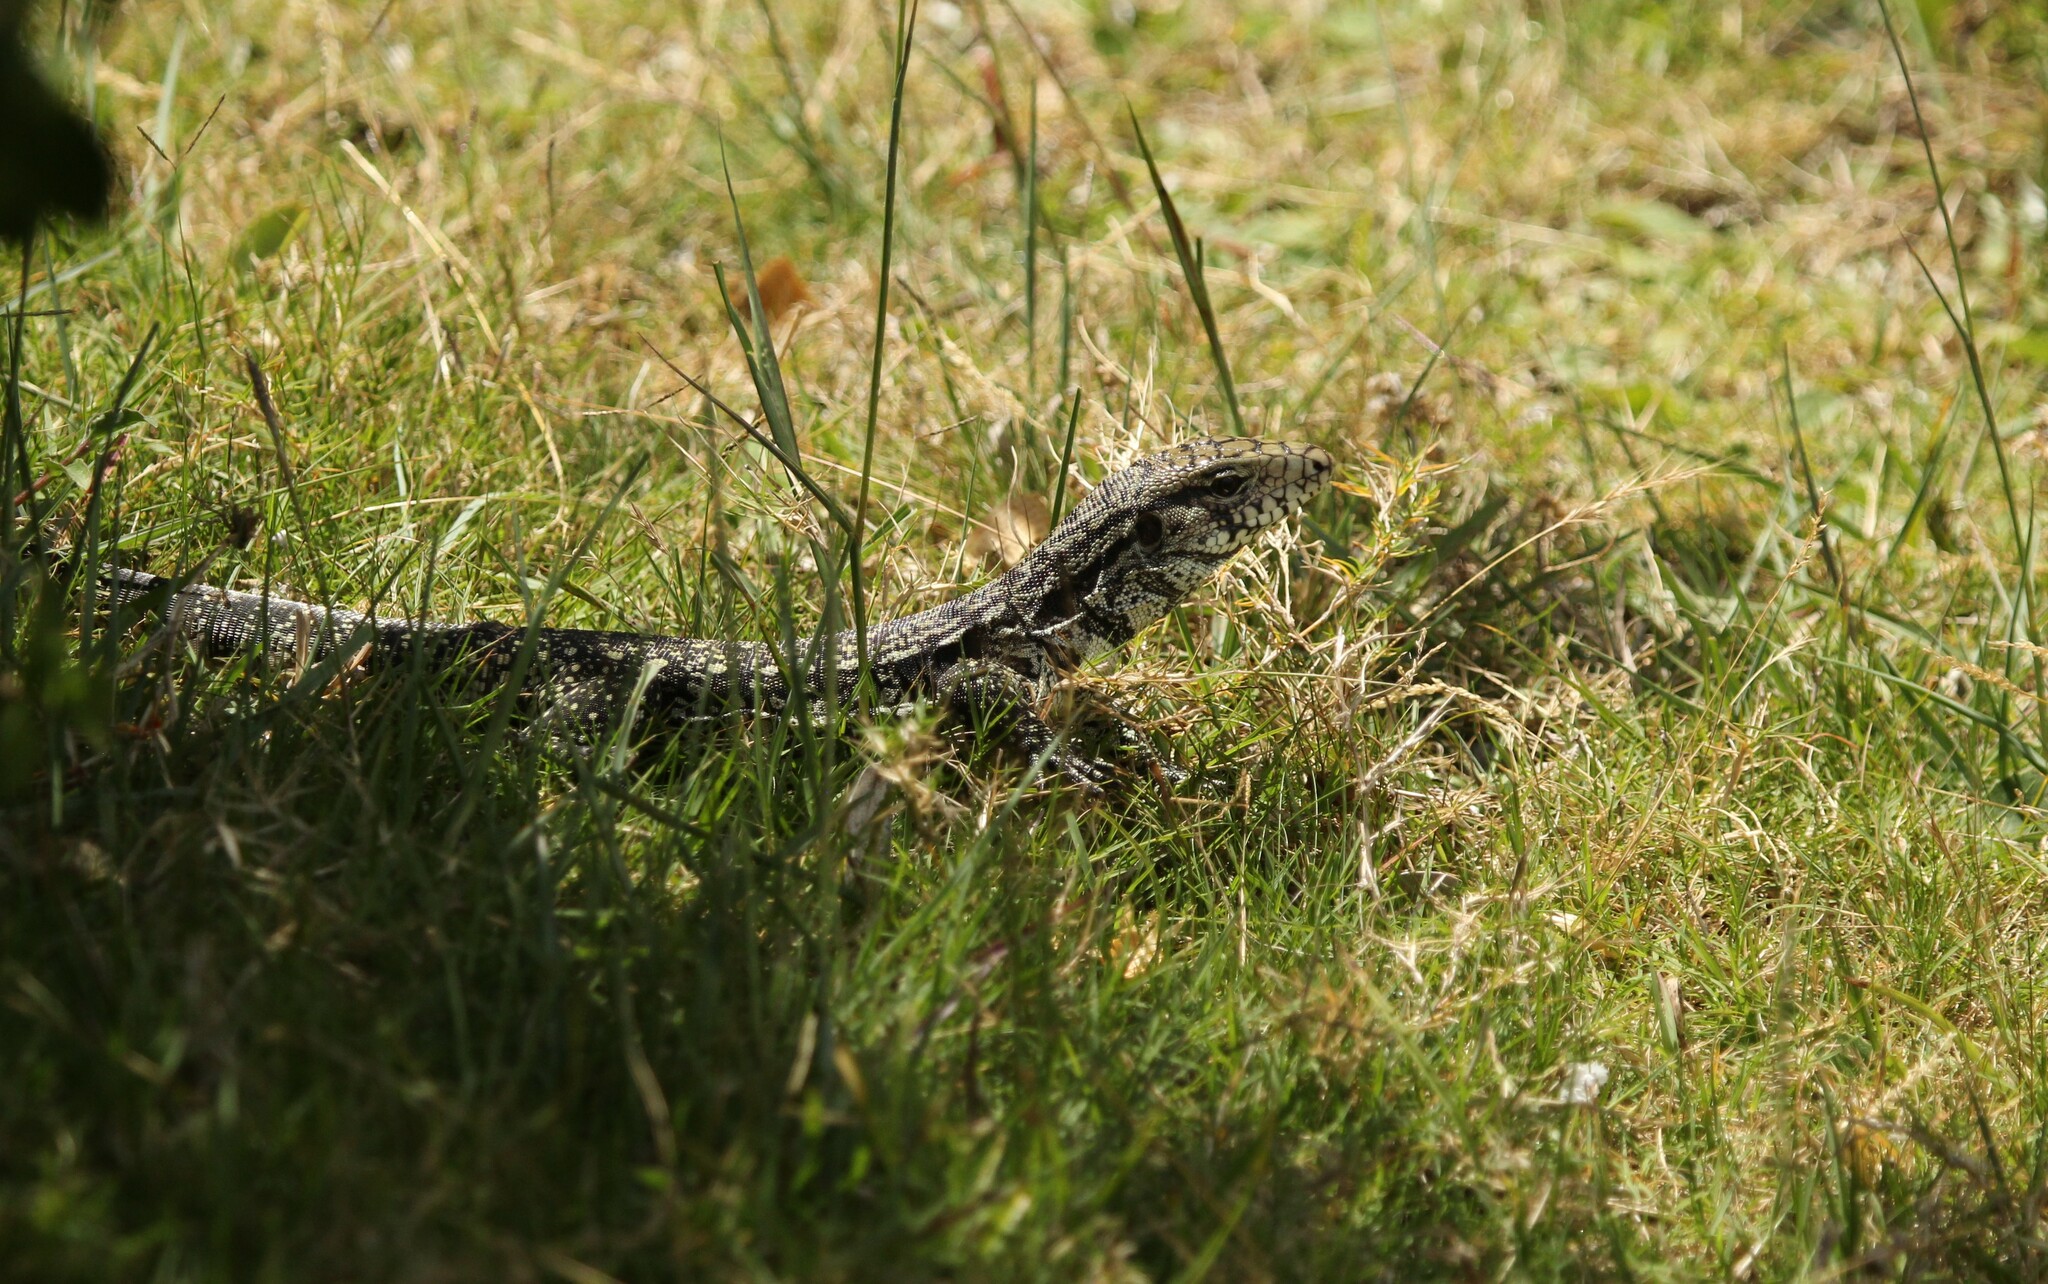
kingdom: Animalia
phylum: Chordata
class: Squamata
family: Teiidae
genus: Salvator
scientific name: Salvator merianae
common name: Argentine black and white tegu
